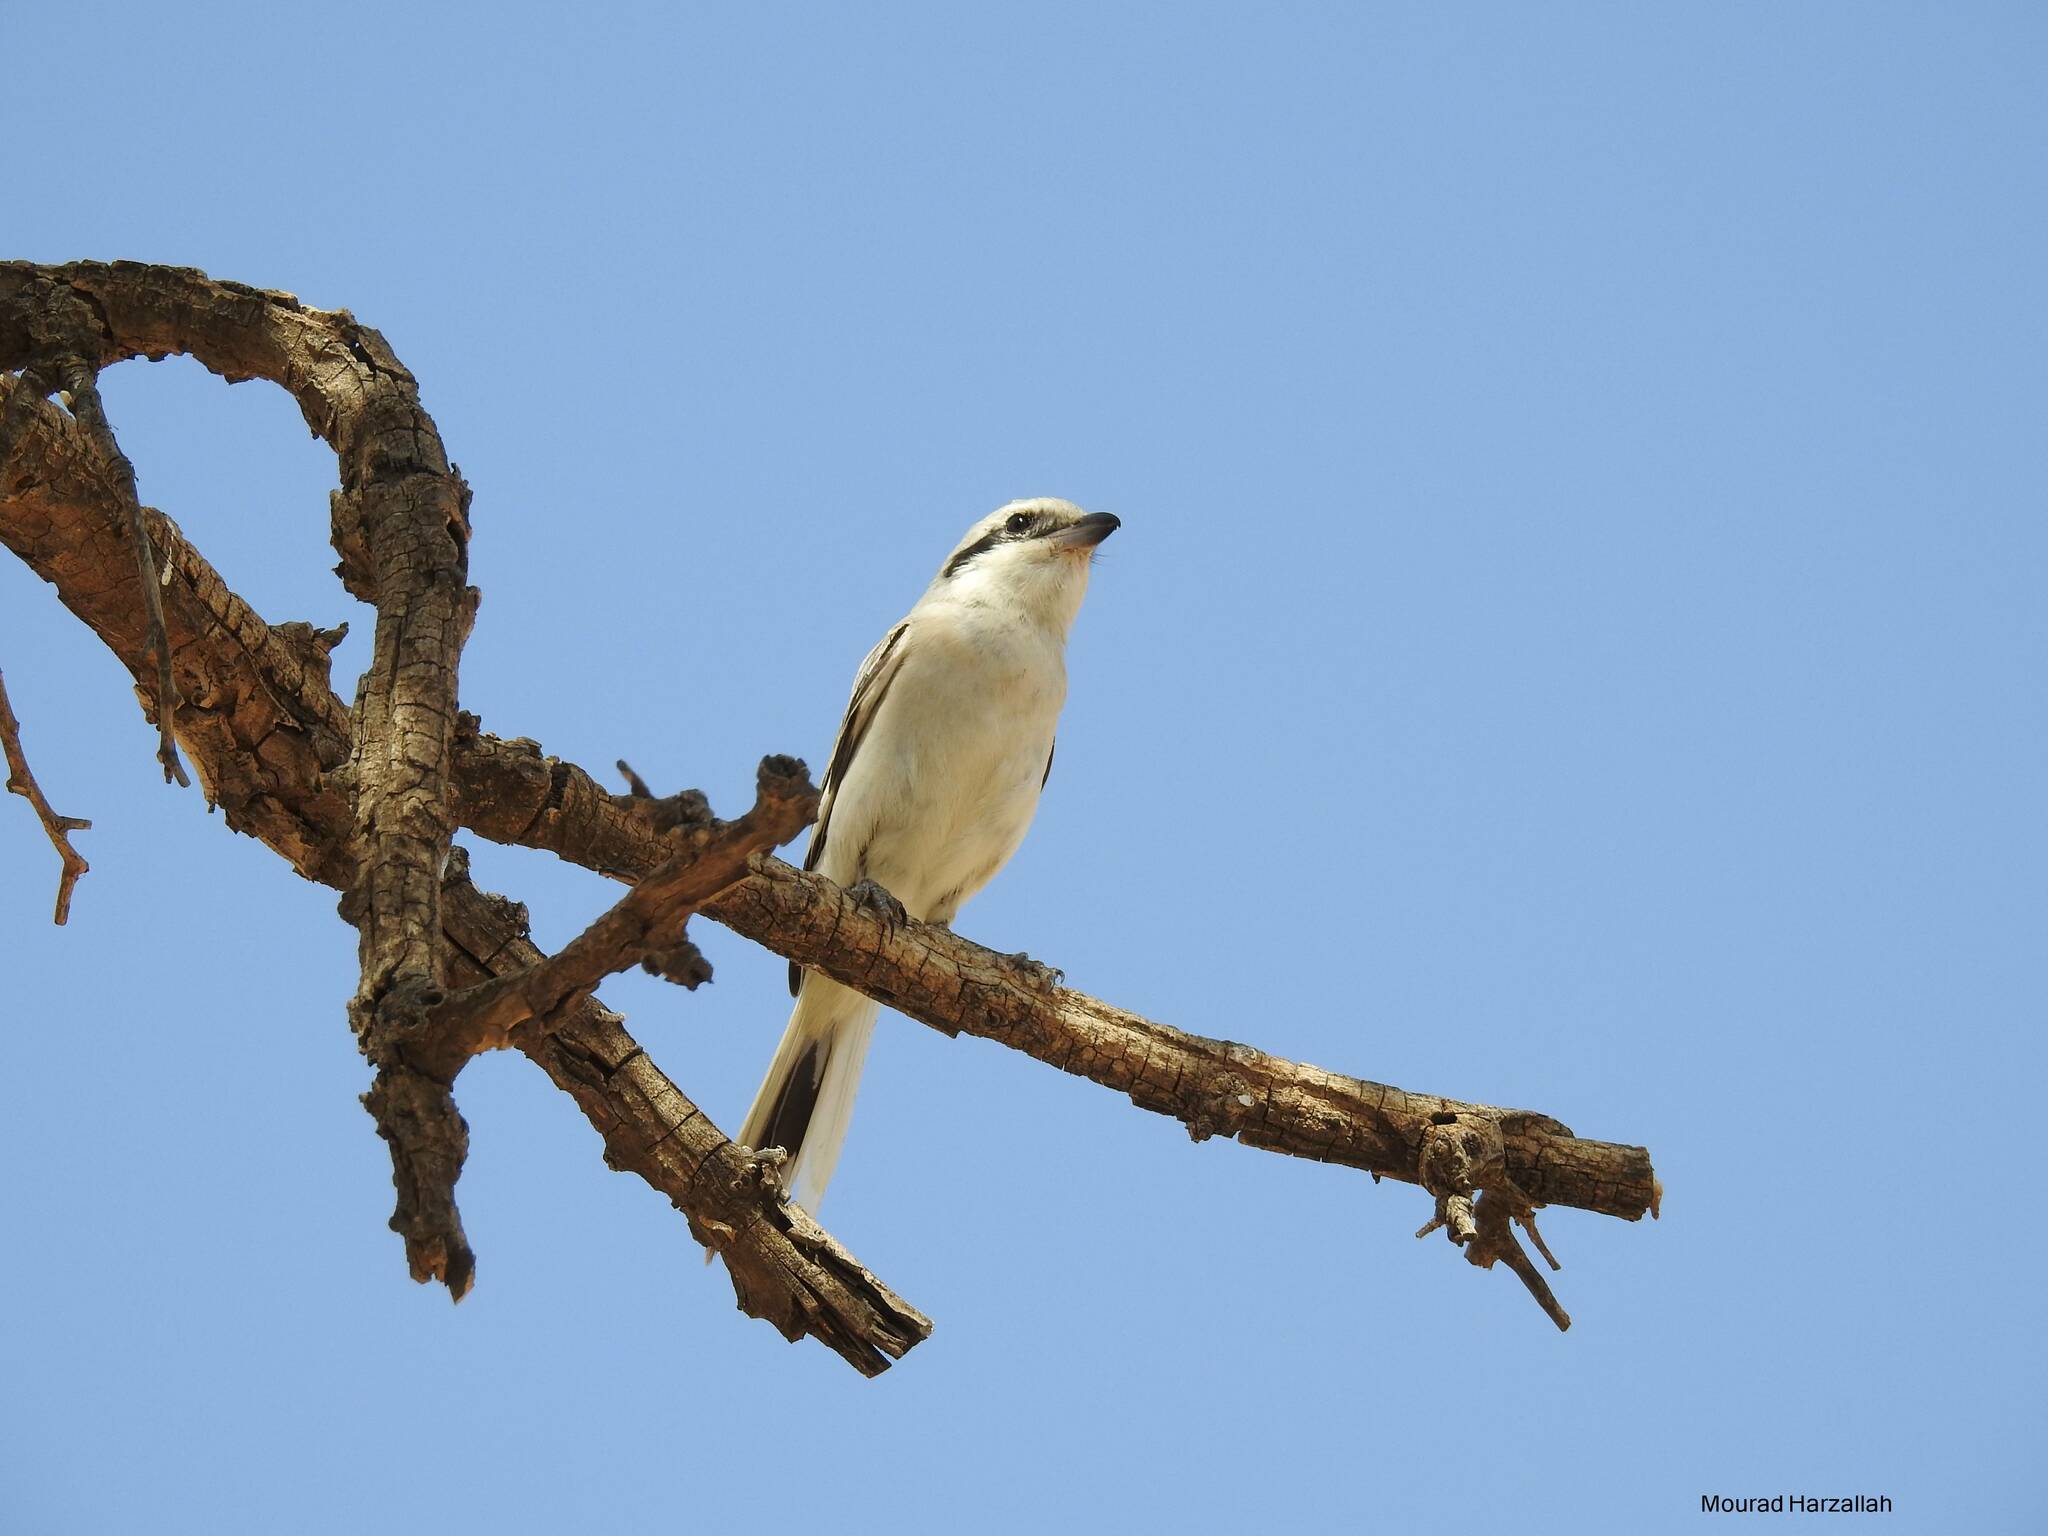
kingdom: Animalia
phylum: Chordata
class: Aves
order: Passeriformes
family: Laniidae
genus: Lanius
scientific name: Lanius excubitor
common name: Great grey shrike
